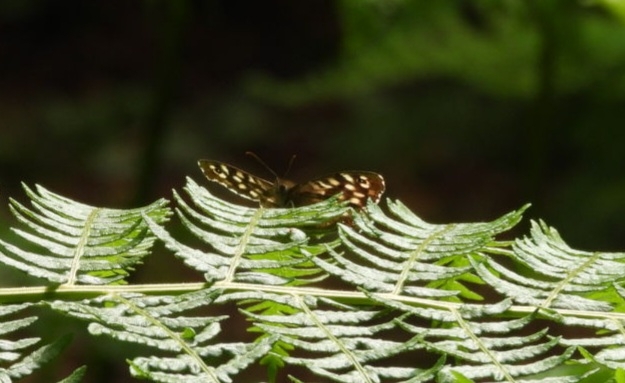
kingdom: Animalia
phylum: Arthropoda
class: Insecta
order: Lepidoptera
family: Nymphalidae
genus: Pararge
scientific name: Pararge aegeria
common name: Speckled wood
